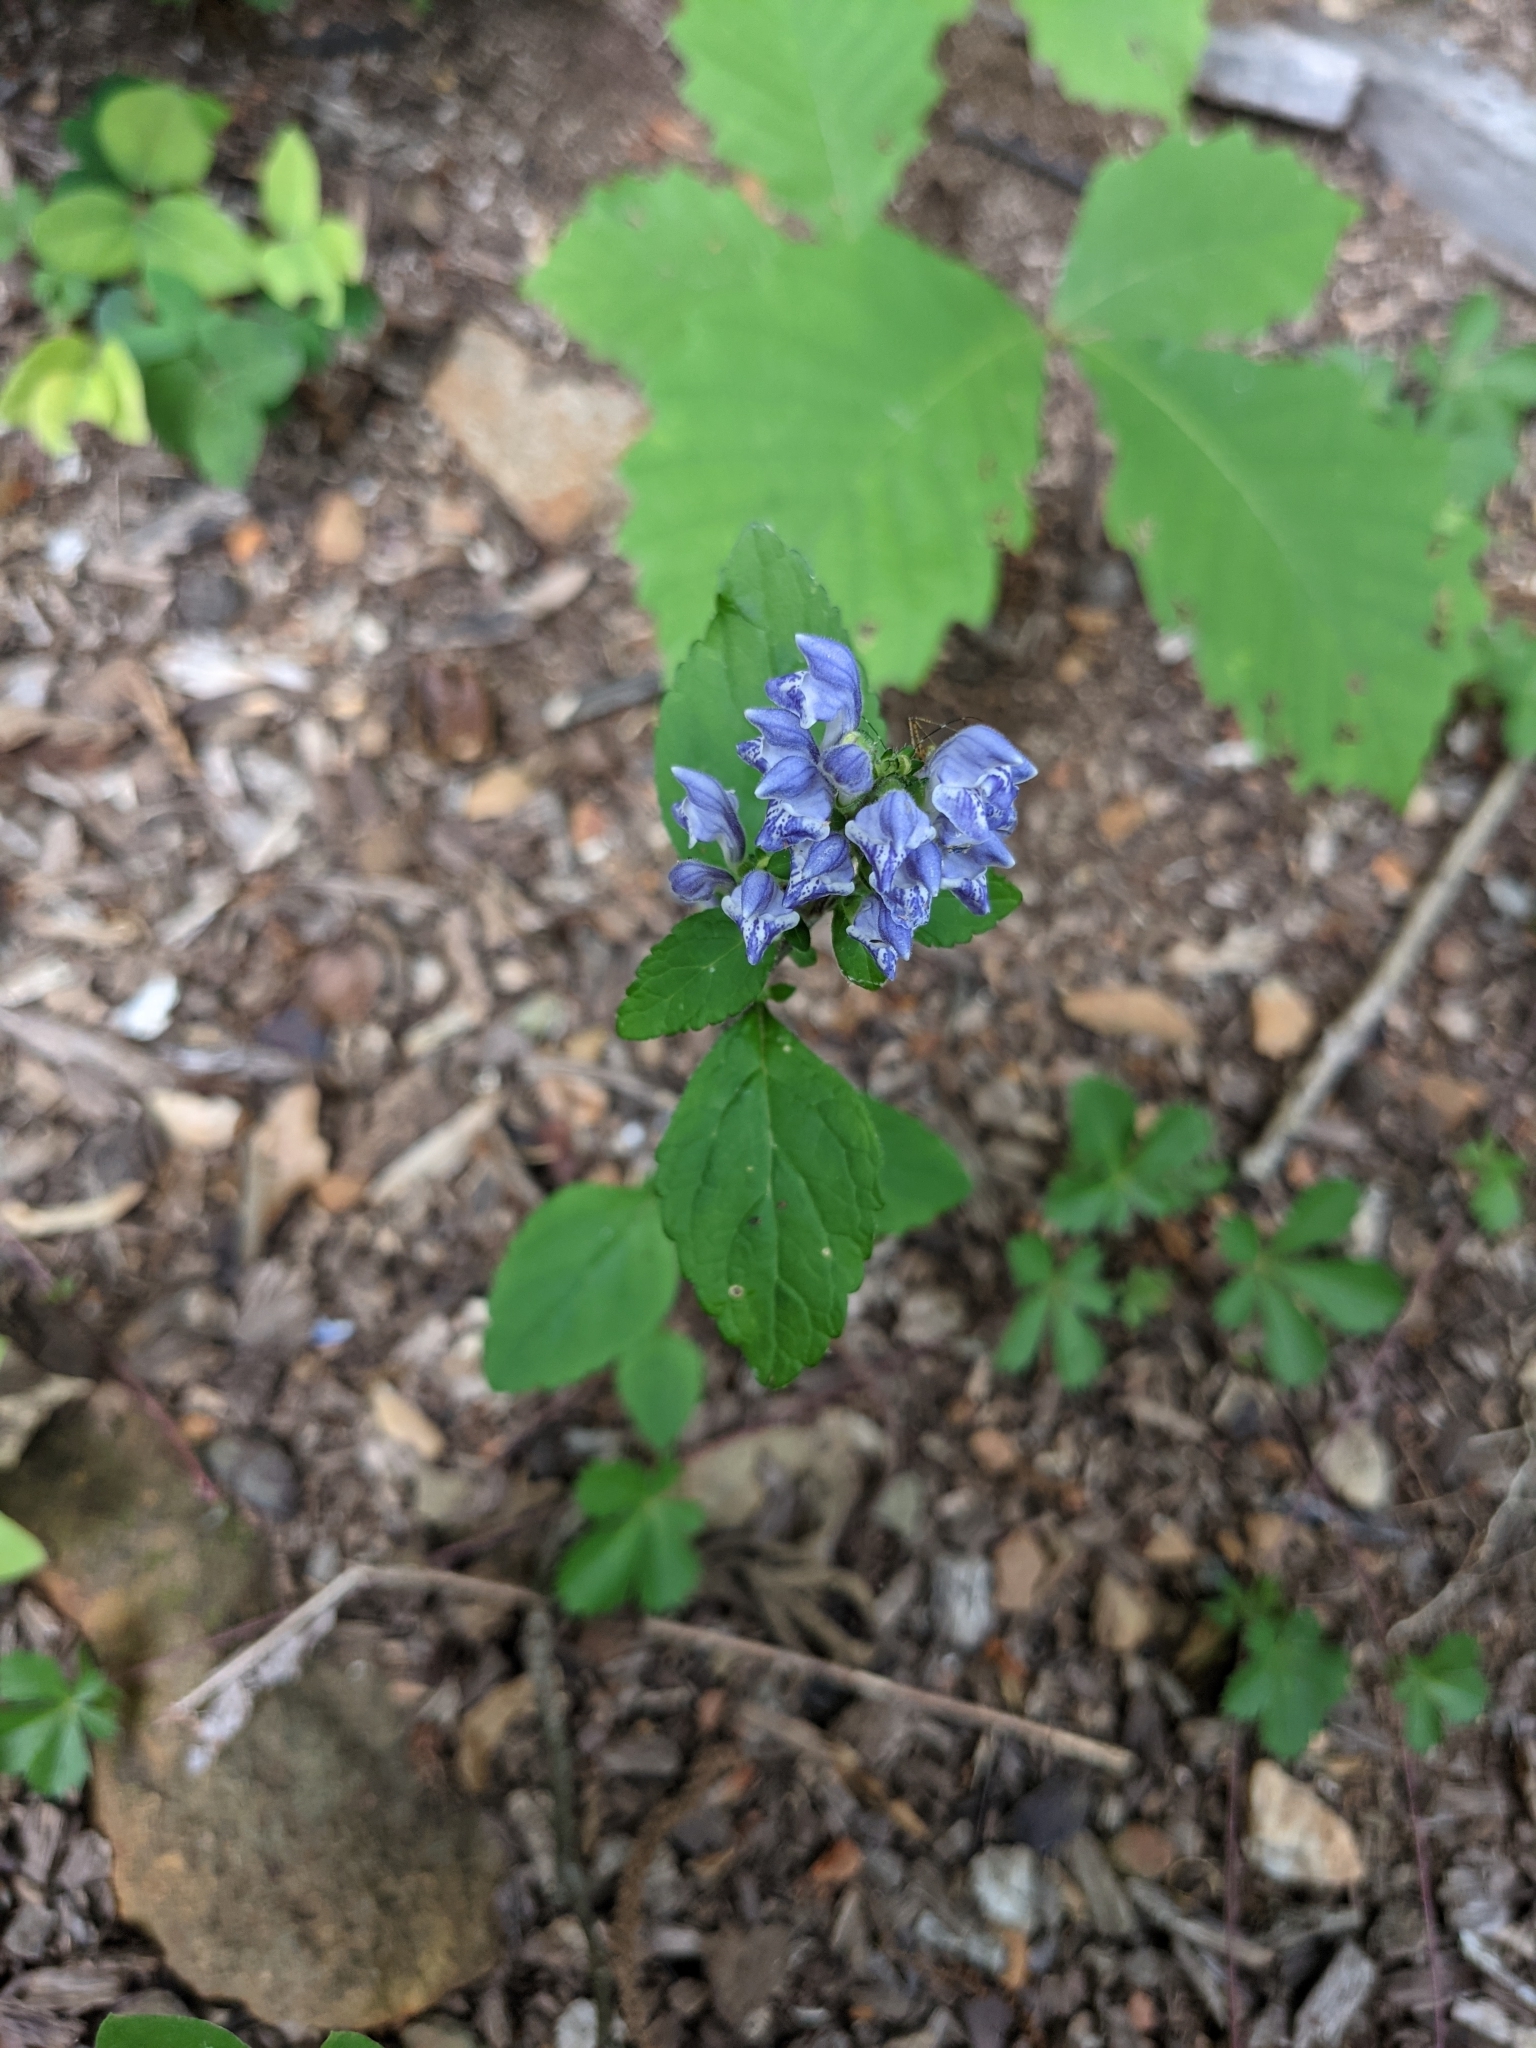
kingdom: Plantae
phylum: Tracheophyta
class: Magnoliopsida
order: Lamiales
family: Lamiaceae
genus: Scutellaria
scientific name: Scutellaria elliptica
